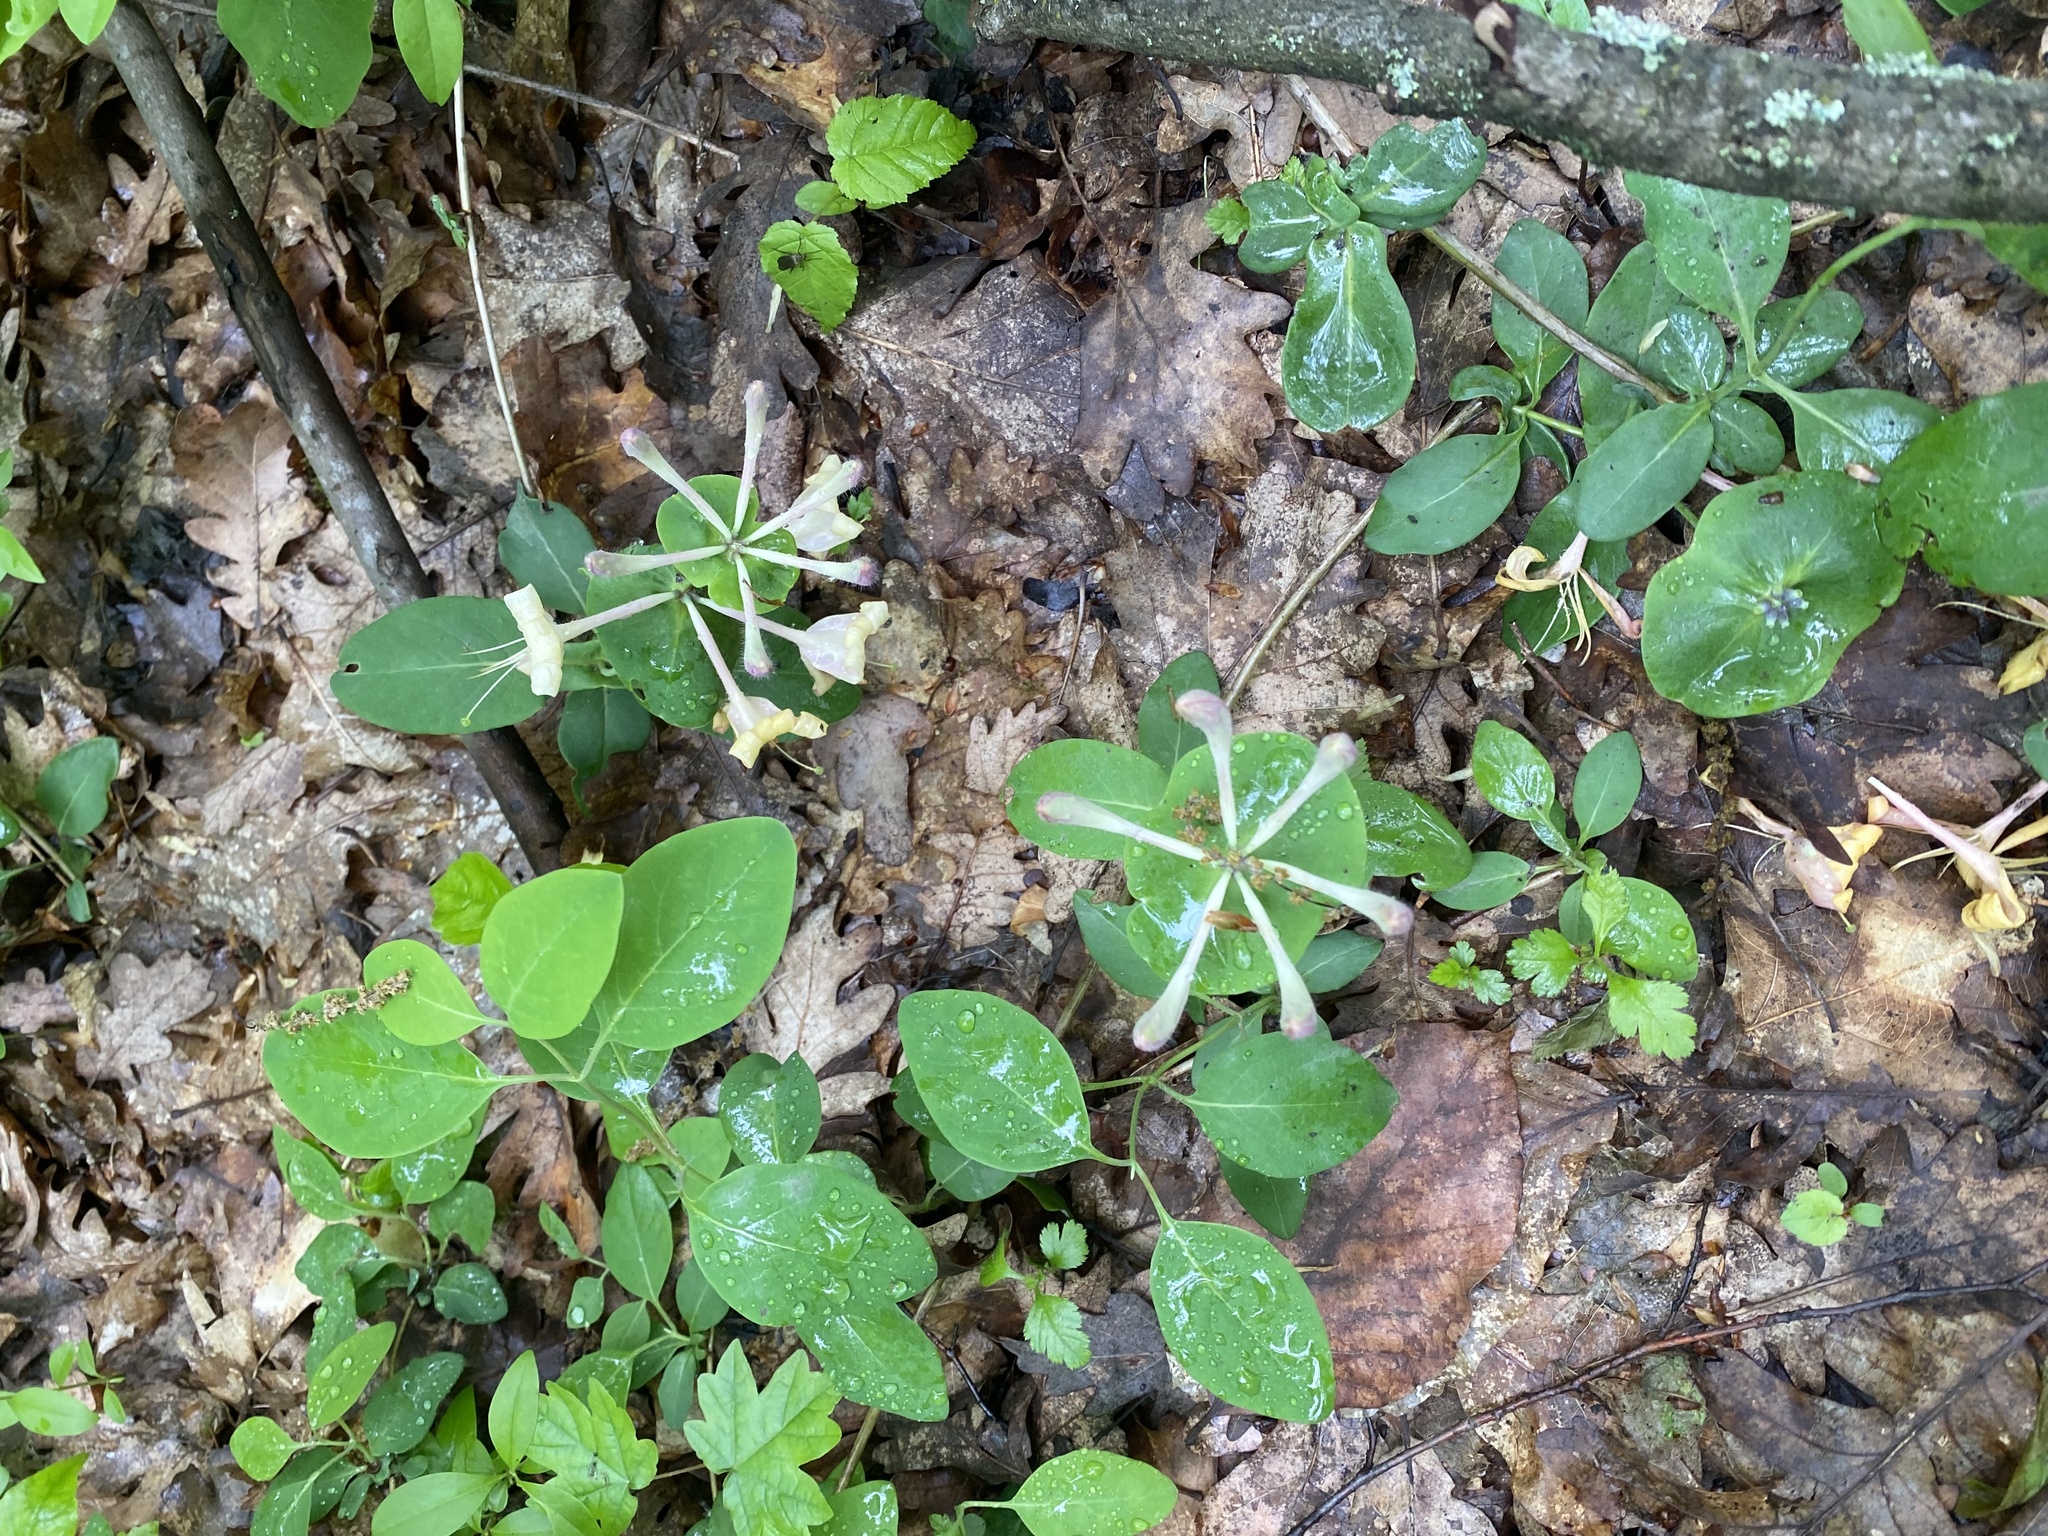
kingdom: Plantae
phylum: Tracheophyta
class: Magnoliopsida
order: Dipsacales
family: Caprifoliaceae
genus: Lonicera
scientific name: Lonicera caprifolium
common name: Perfoliate honeysuckle
